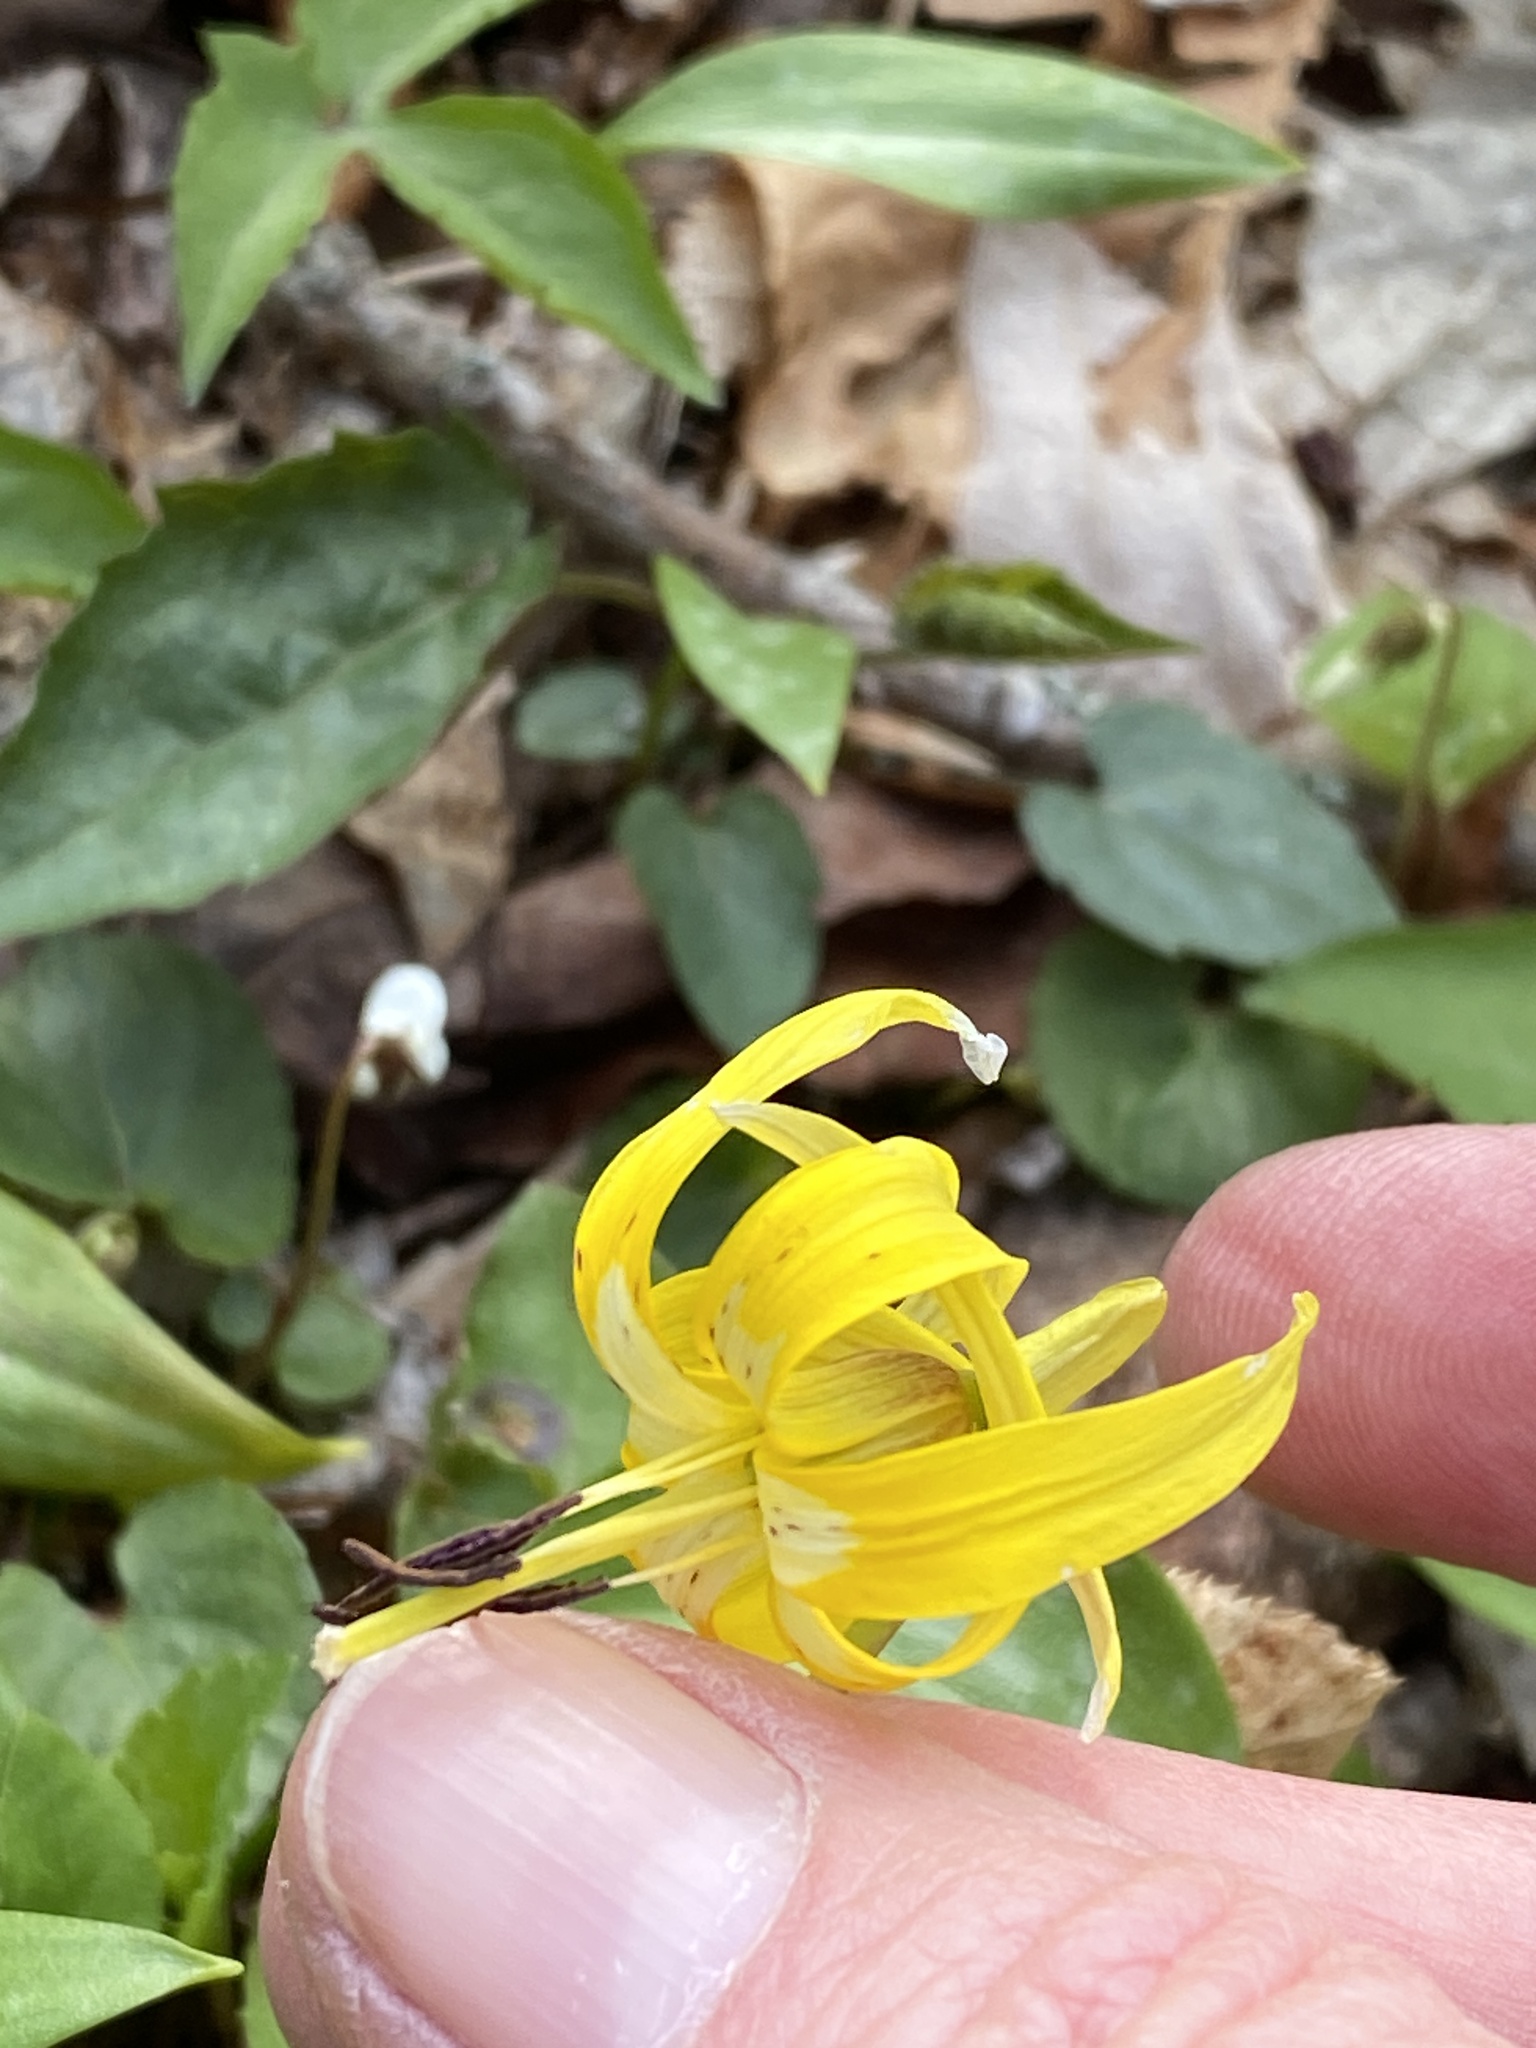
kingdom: Plantae
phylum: Tracheophyta
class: Liliopsida
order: Liliales
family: Liliaceae
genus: Erythronium
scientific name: Erythronium americanum
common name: Yellow adder's-tongue
